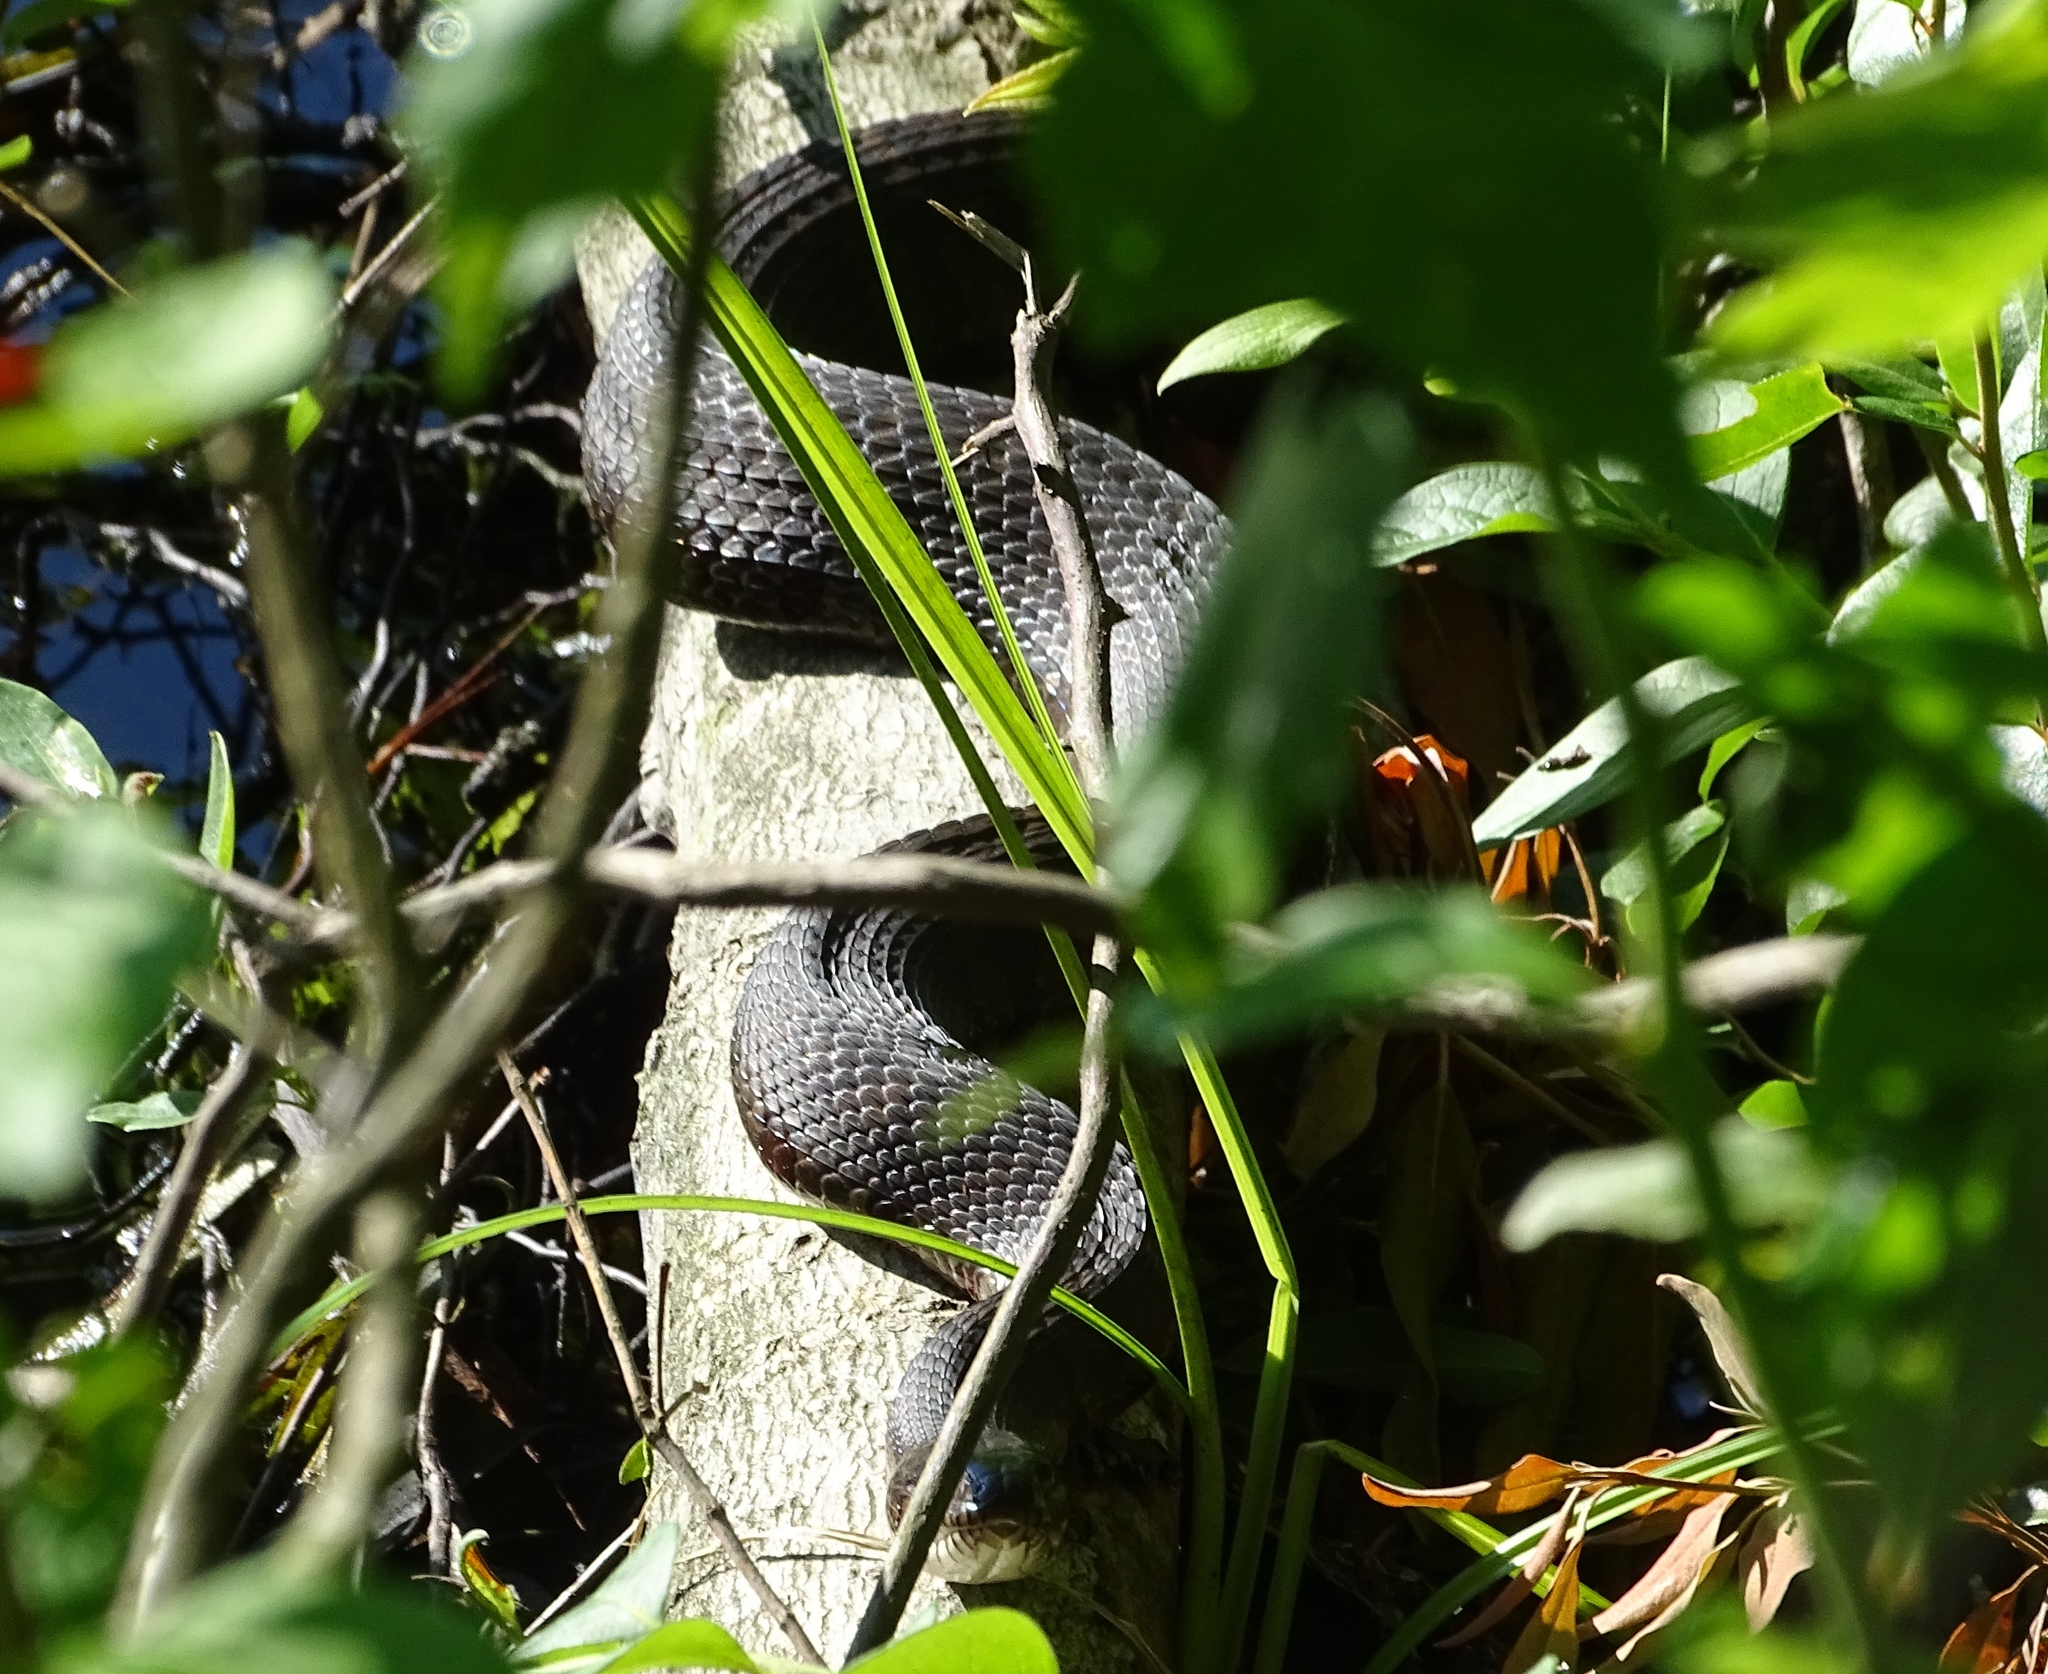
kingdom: Animalia
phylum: Chordata
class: Squamata
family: Colubridae
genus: Nerodia
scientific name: Nerodia sipedon
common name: Northern water snake
